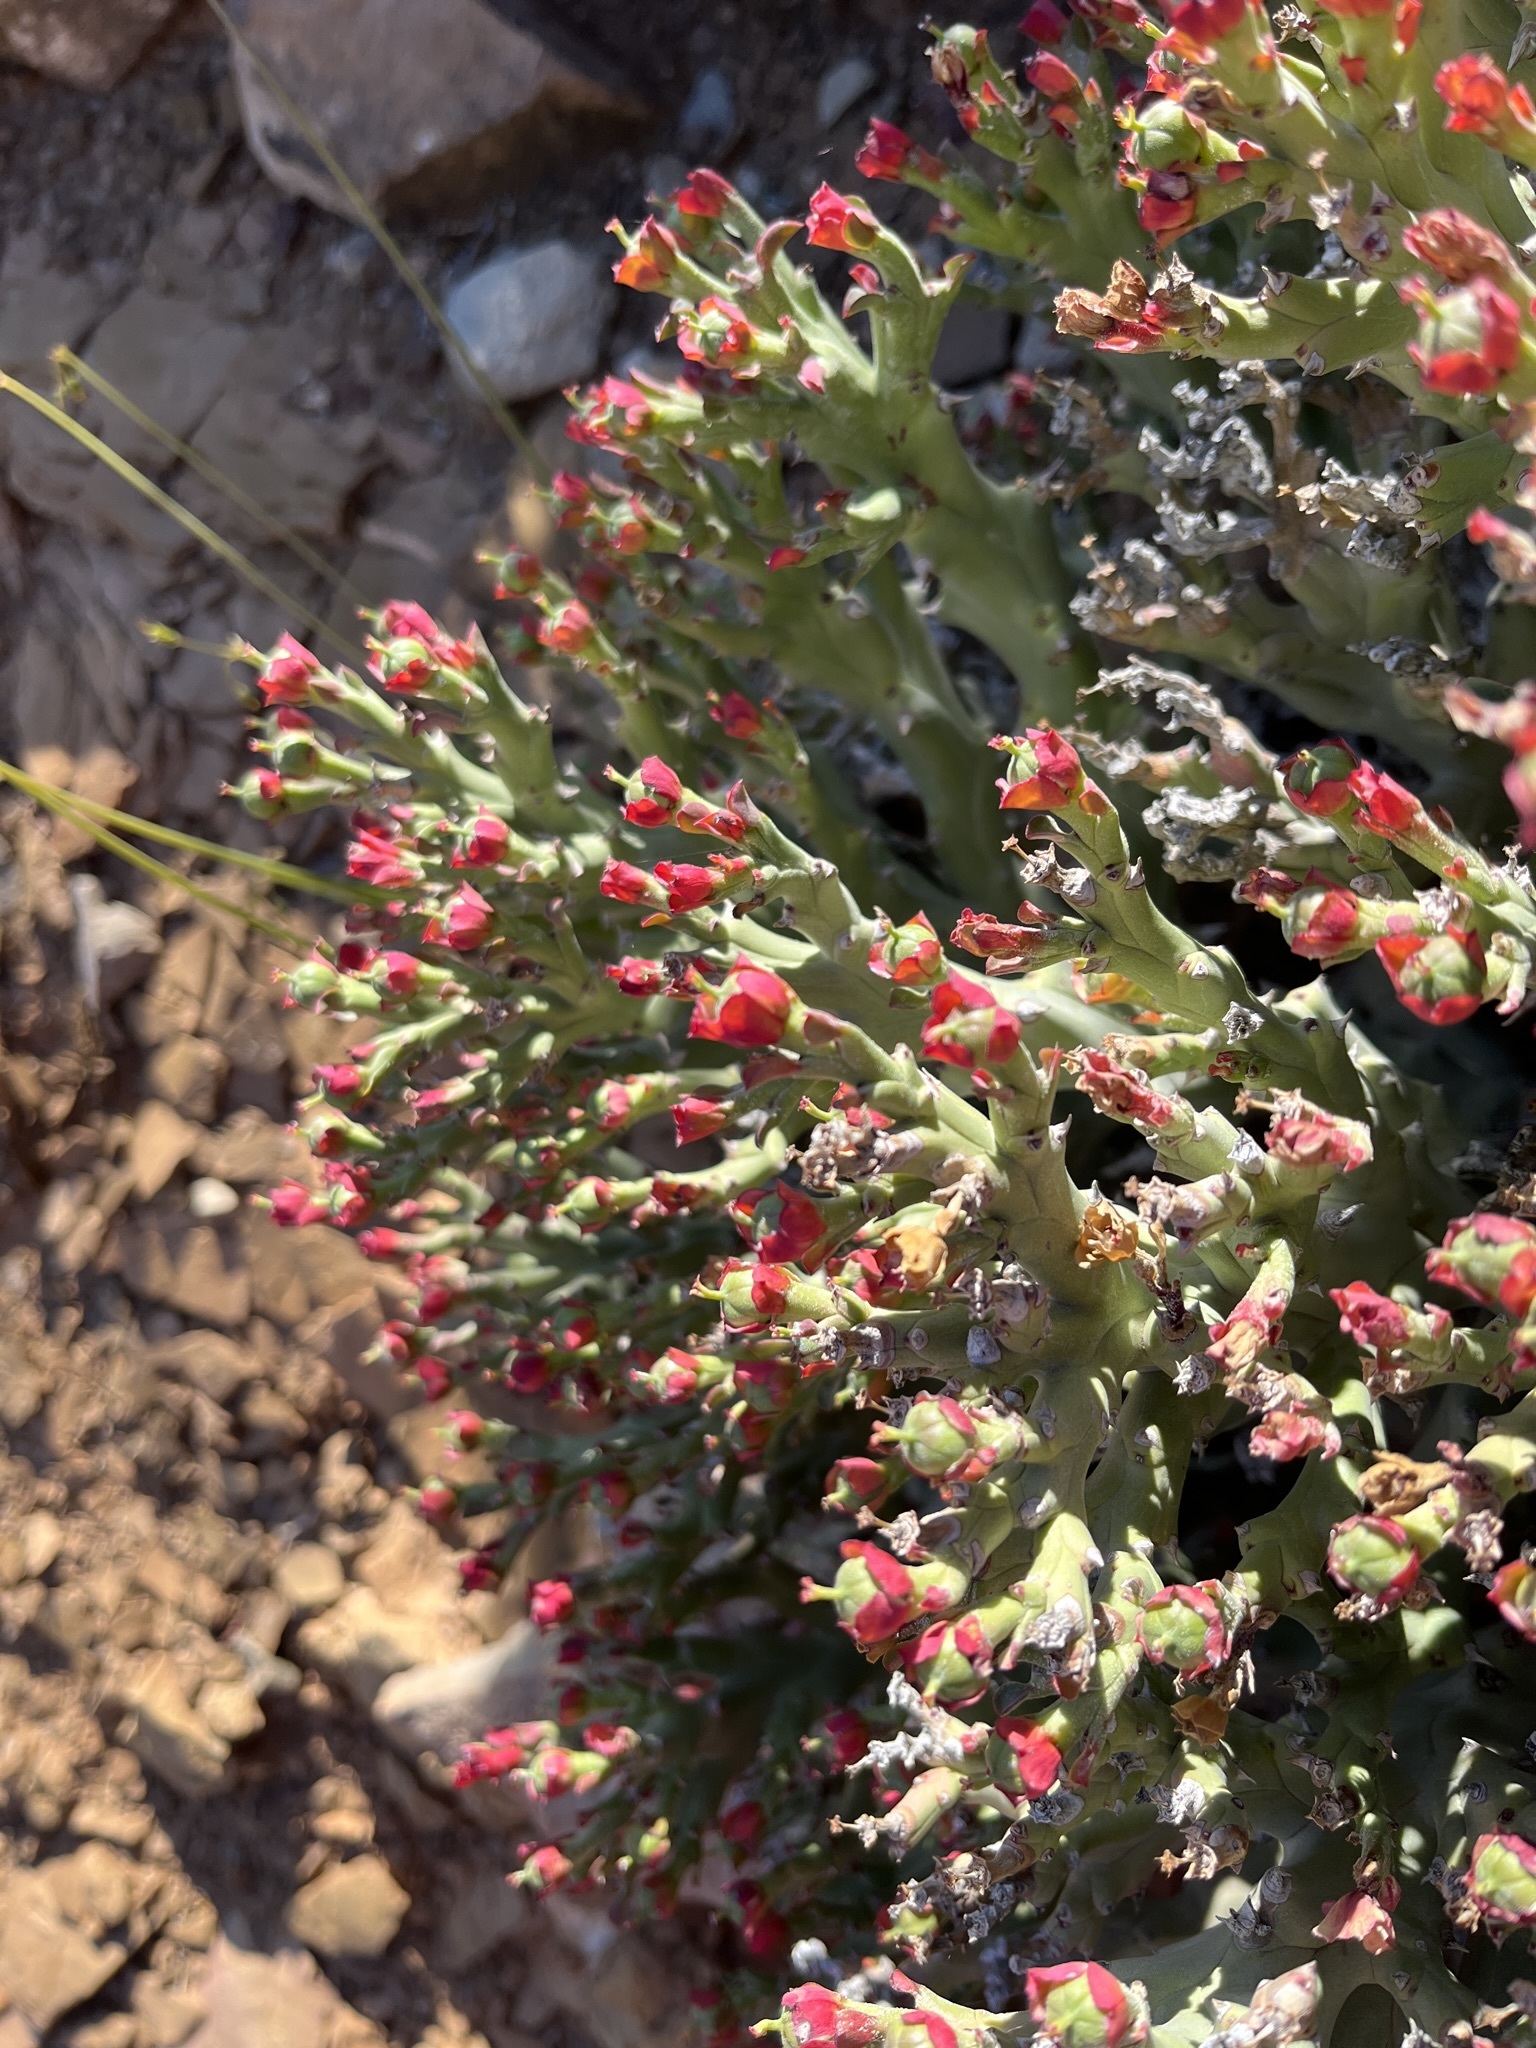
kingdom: Plantae
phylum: Tracheophyta
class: Magnoliopsida
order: Malpighiales
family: Euphorbiaceae
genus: Euphorbia
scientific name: Euphorbia hamata
